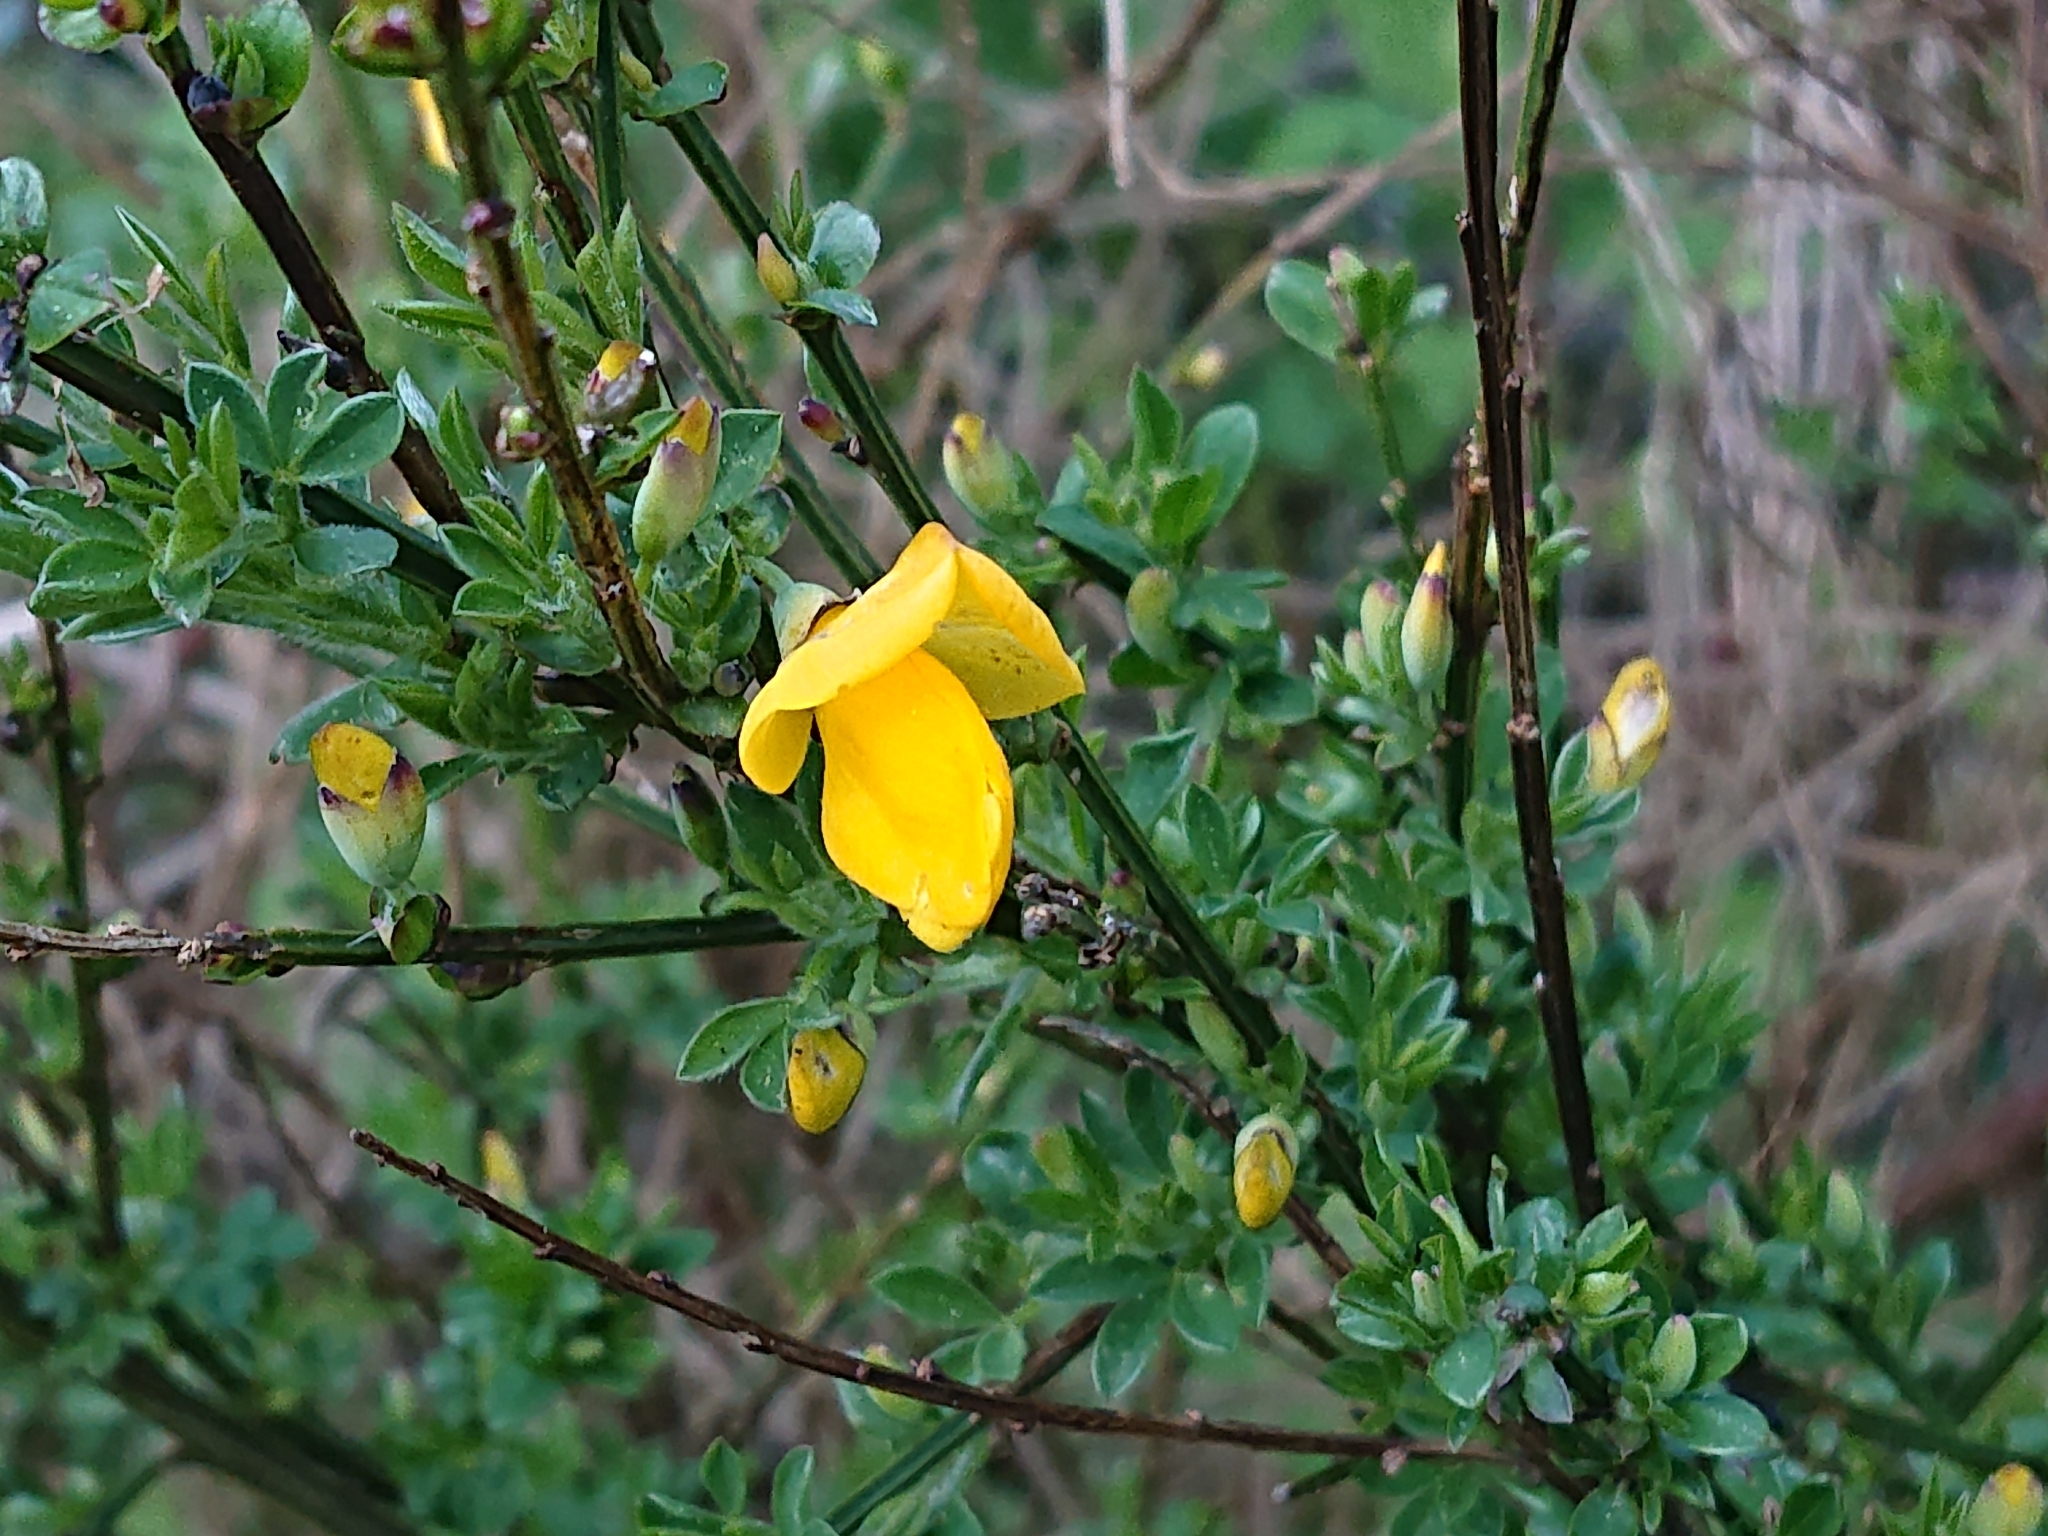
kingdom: Plantae
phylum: Tracheophyta
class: Magnoliopsida
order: Fabales
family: Fabaceae
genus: Cytisus
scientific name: Cytisus scoparius
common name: Scotch broom
